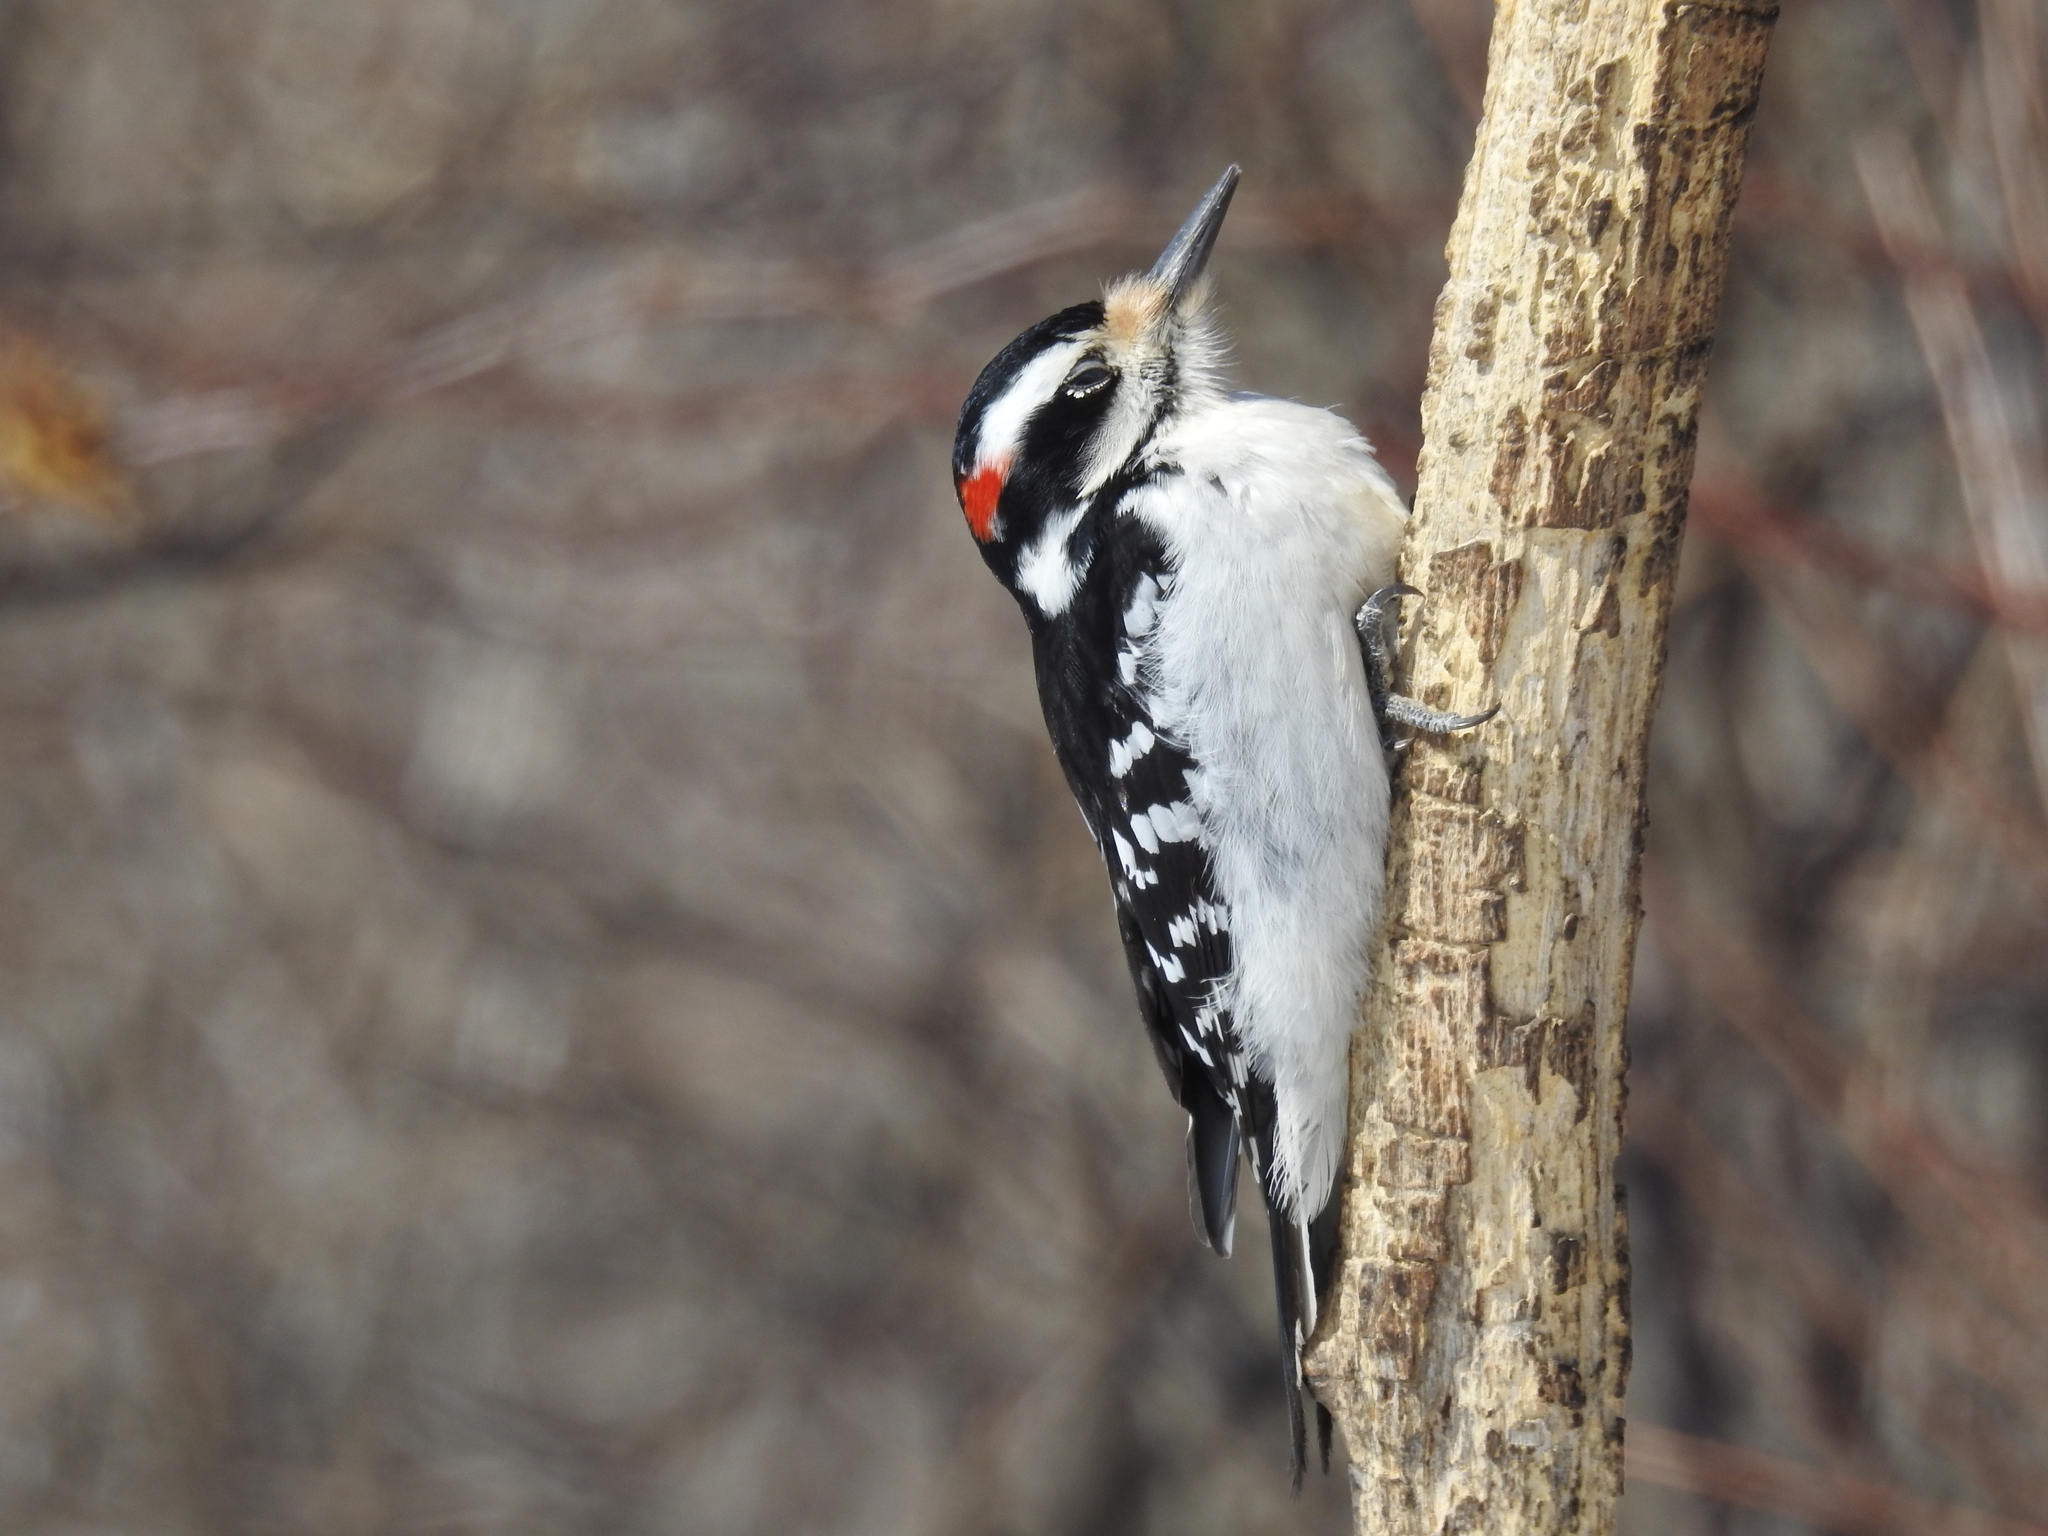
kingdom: Animalia
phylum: Chordata
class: Aves
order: Piciformes
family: Picidae
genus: Leuconotopicus
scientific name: Leuconotopicus villosus
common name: Hairy woodpecker
